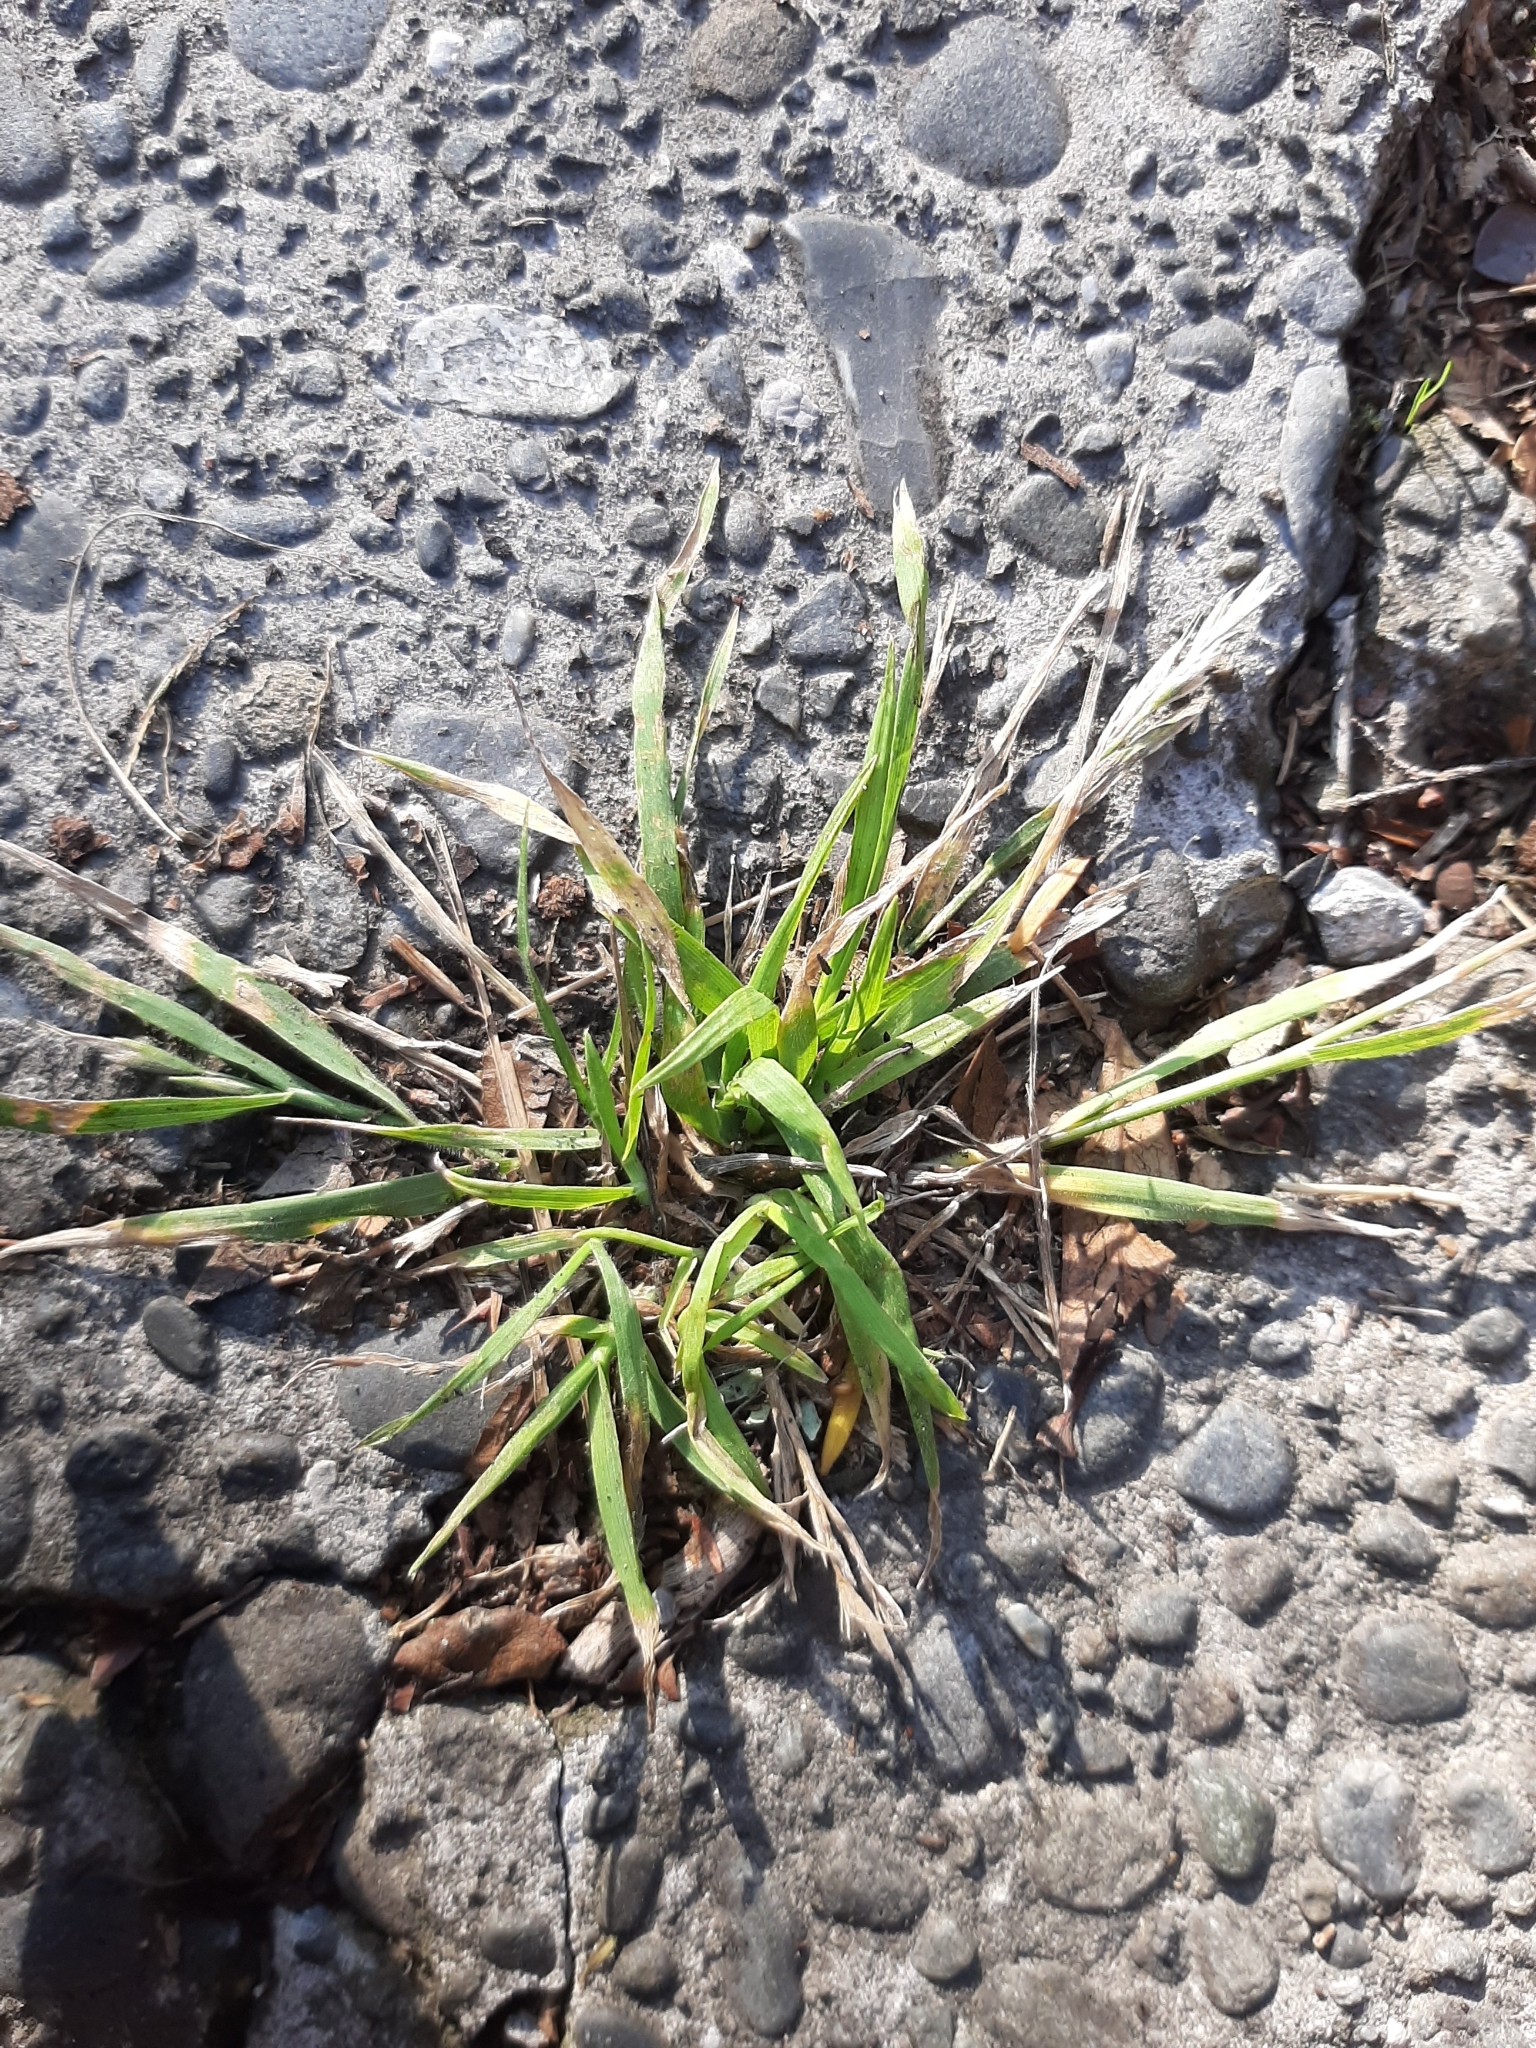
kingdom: Plantae
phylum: Tracheophyta
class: Liliopsida
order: Poales
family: Poaceae
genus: Bromus
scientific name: Bromus catharticus
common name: Rescuegrass
